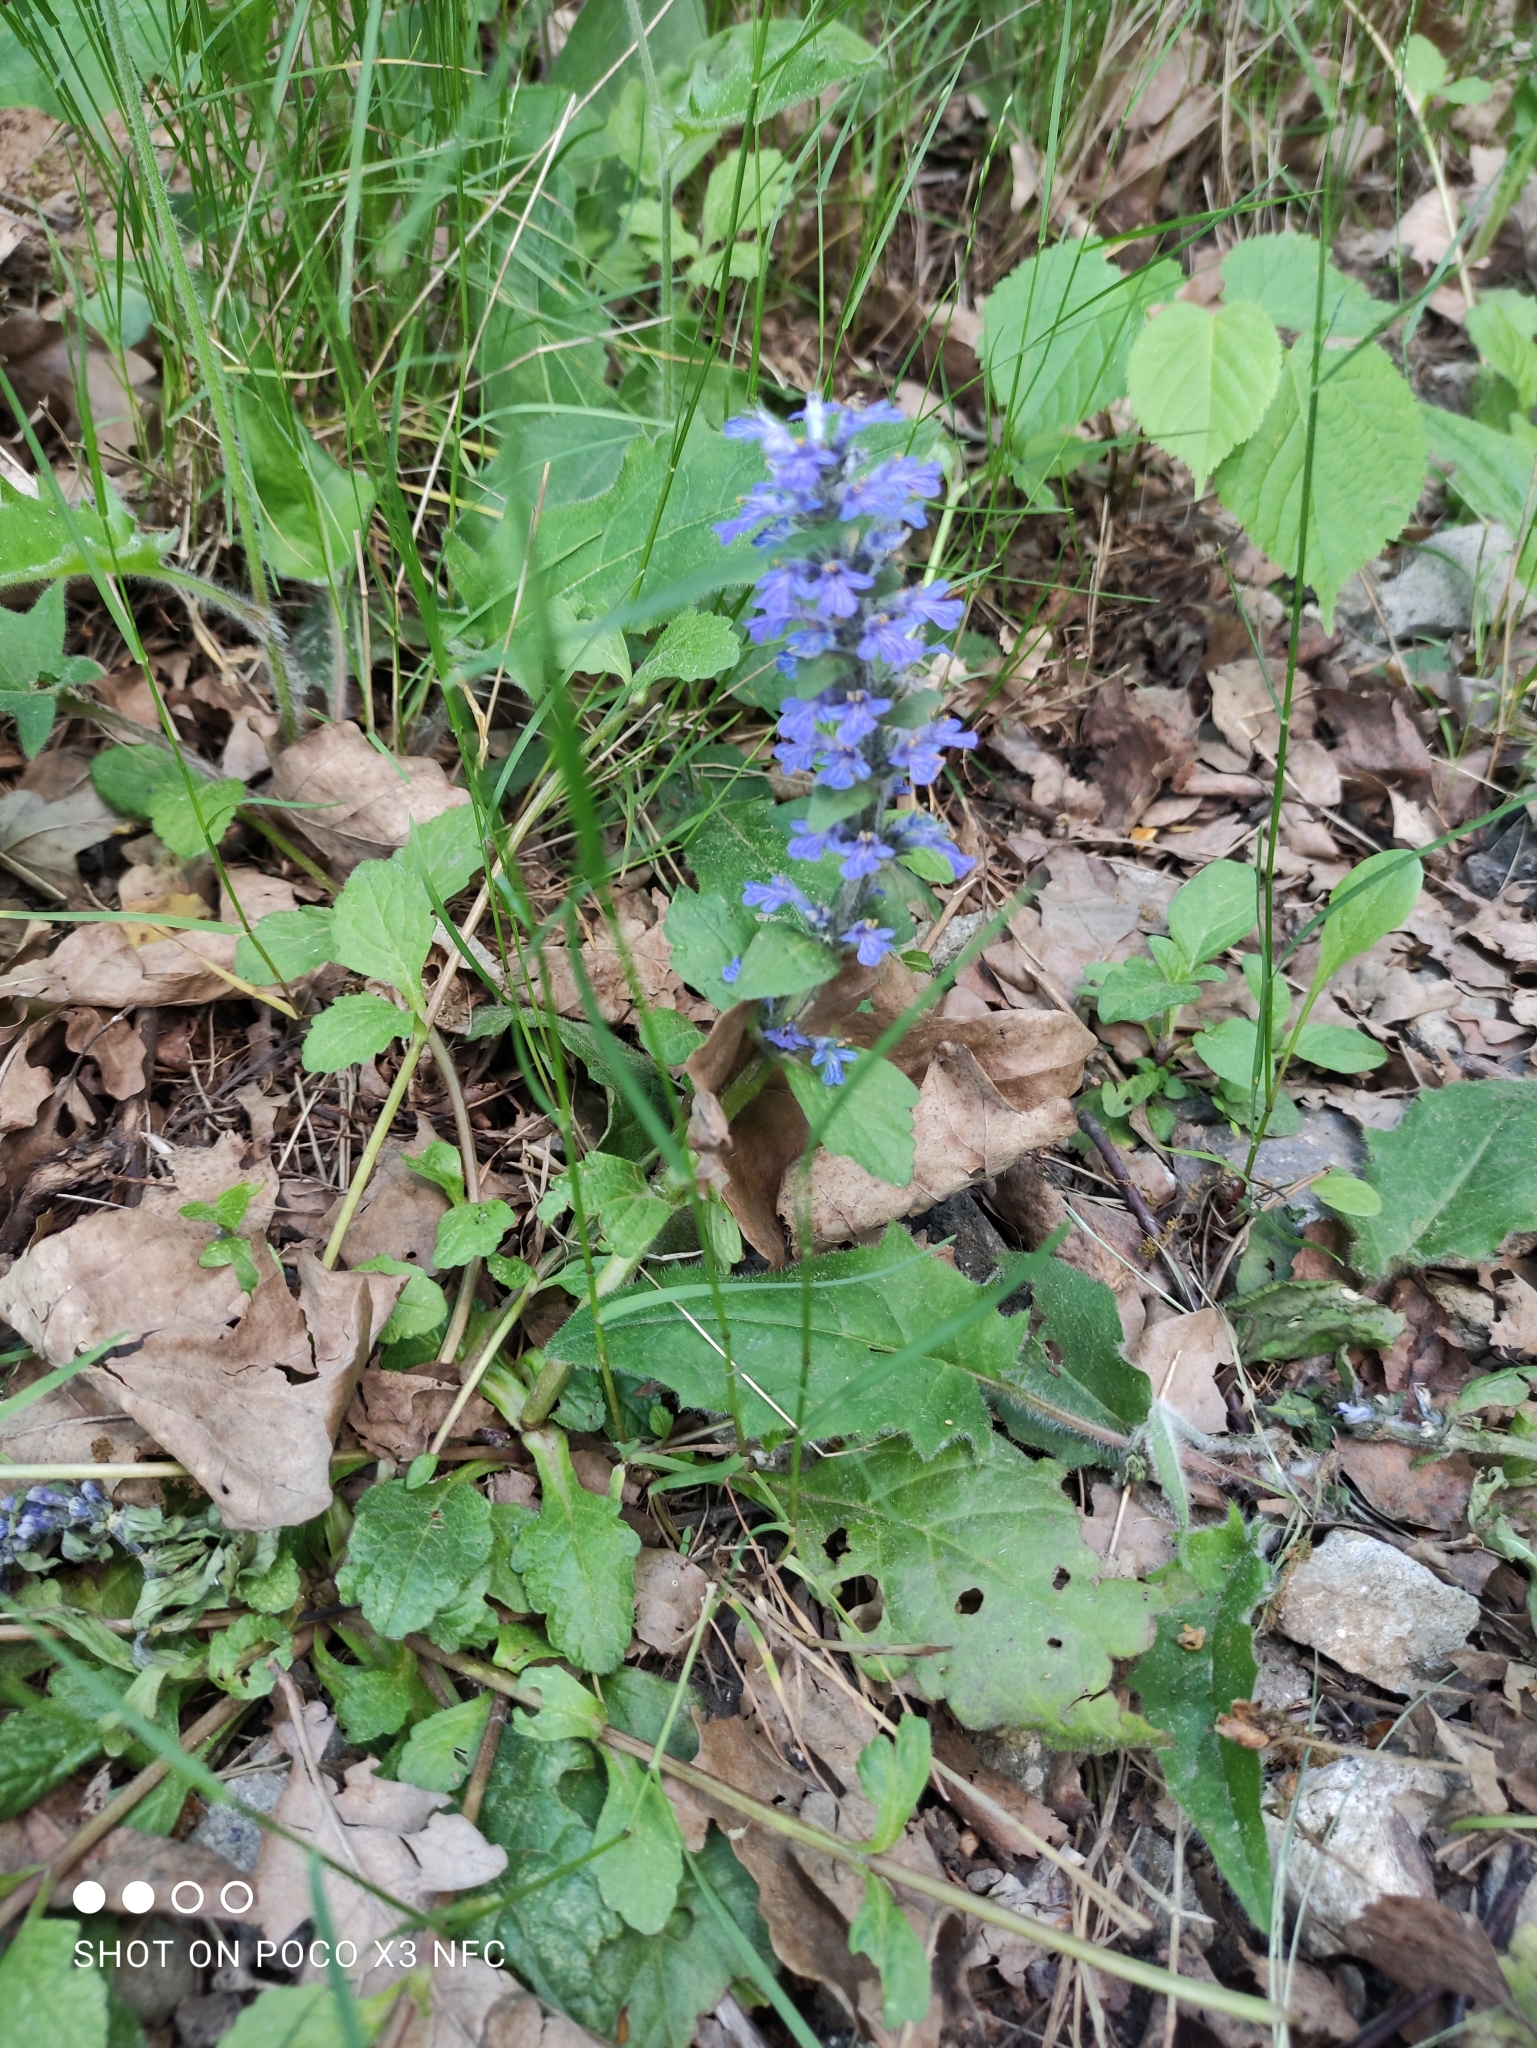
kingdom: Plantae
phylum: Tracheophyta
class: Magnoliopsida
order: Lamiales
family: Lamiaceae
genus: Ajuga
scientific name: Ajuga reptans
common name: Bugle
